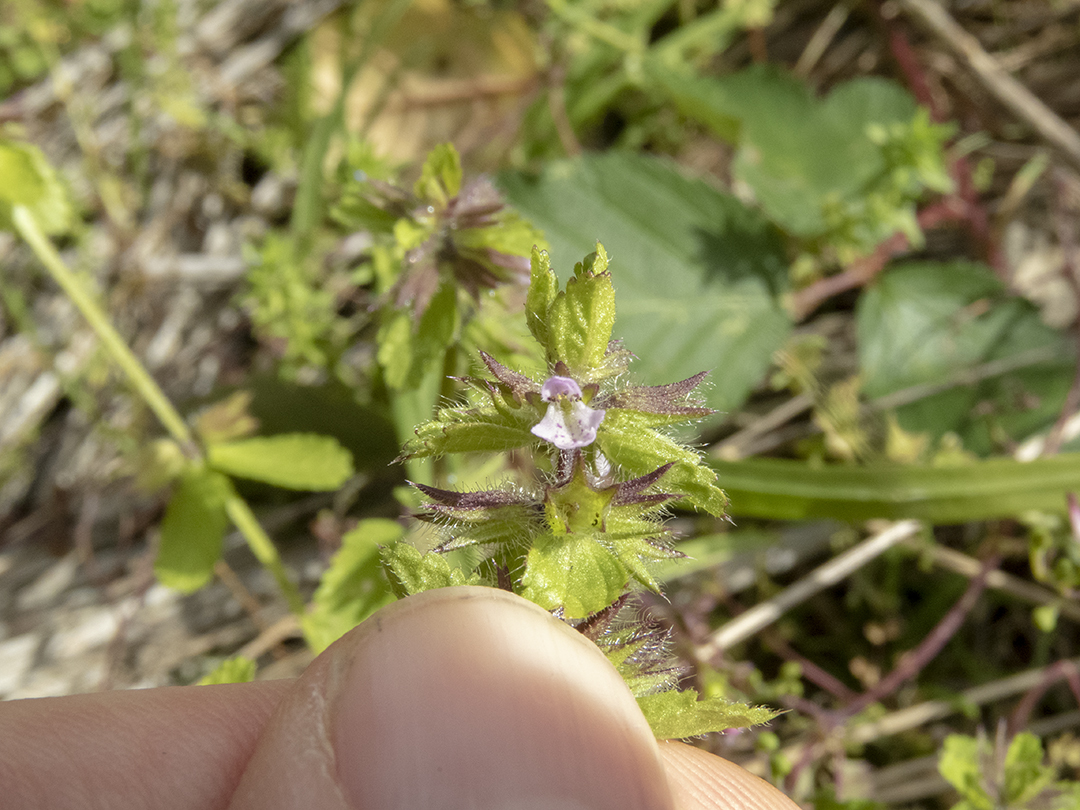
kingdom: Plantae
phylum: Tracheophyta
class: Magnoliopsida
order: Lamiales
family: Lamiaceae
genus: Stachys
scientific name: Stachys arvensis
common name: Field woundwort
